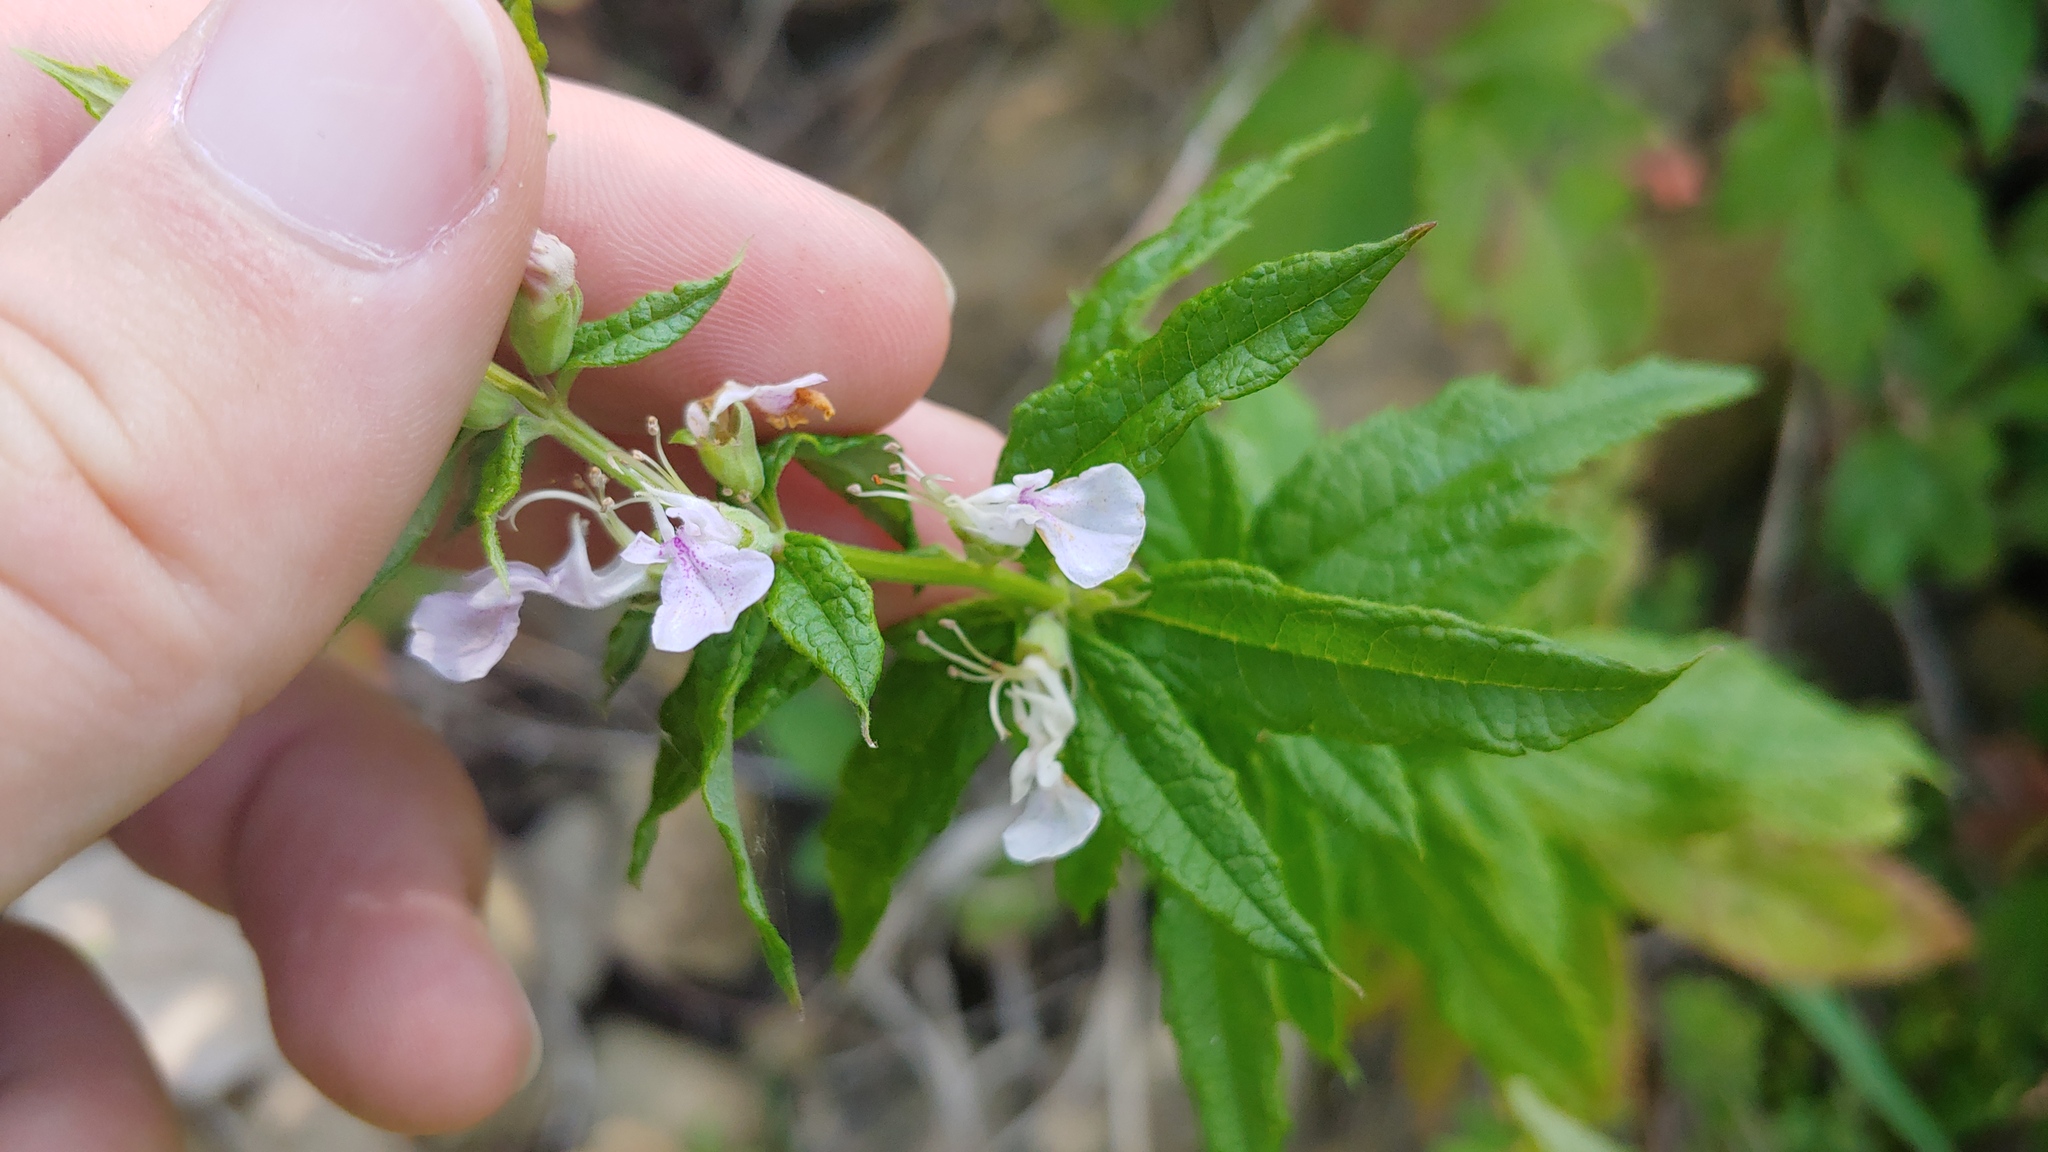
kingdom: Plantae
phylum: Tracheophyta
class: Magnoliopsida
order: Lamiales
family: Lamiaceae
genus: Teucrium
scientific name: Teucrium canadense
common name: American germander
